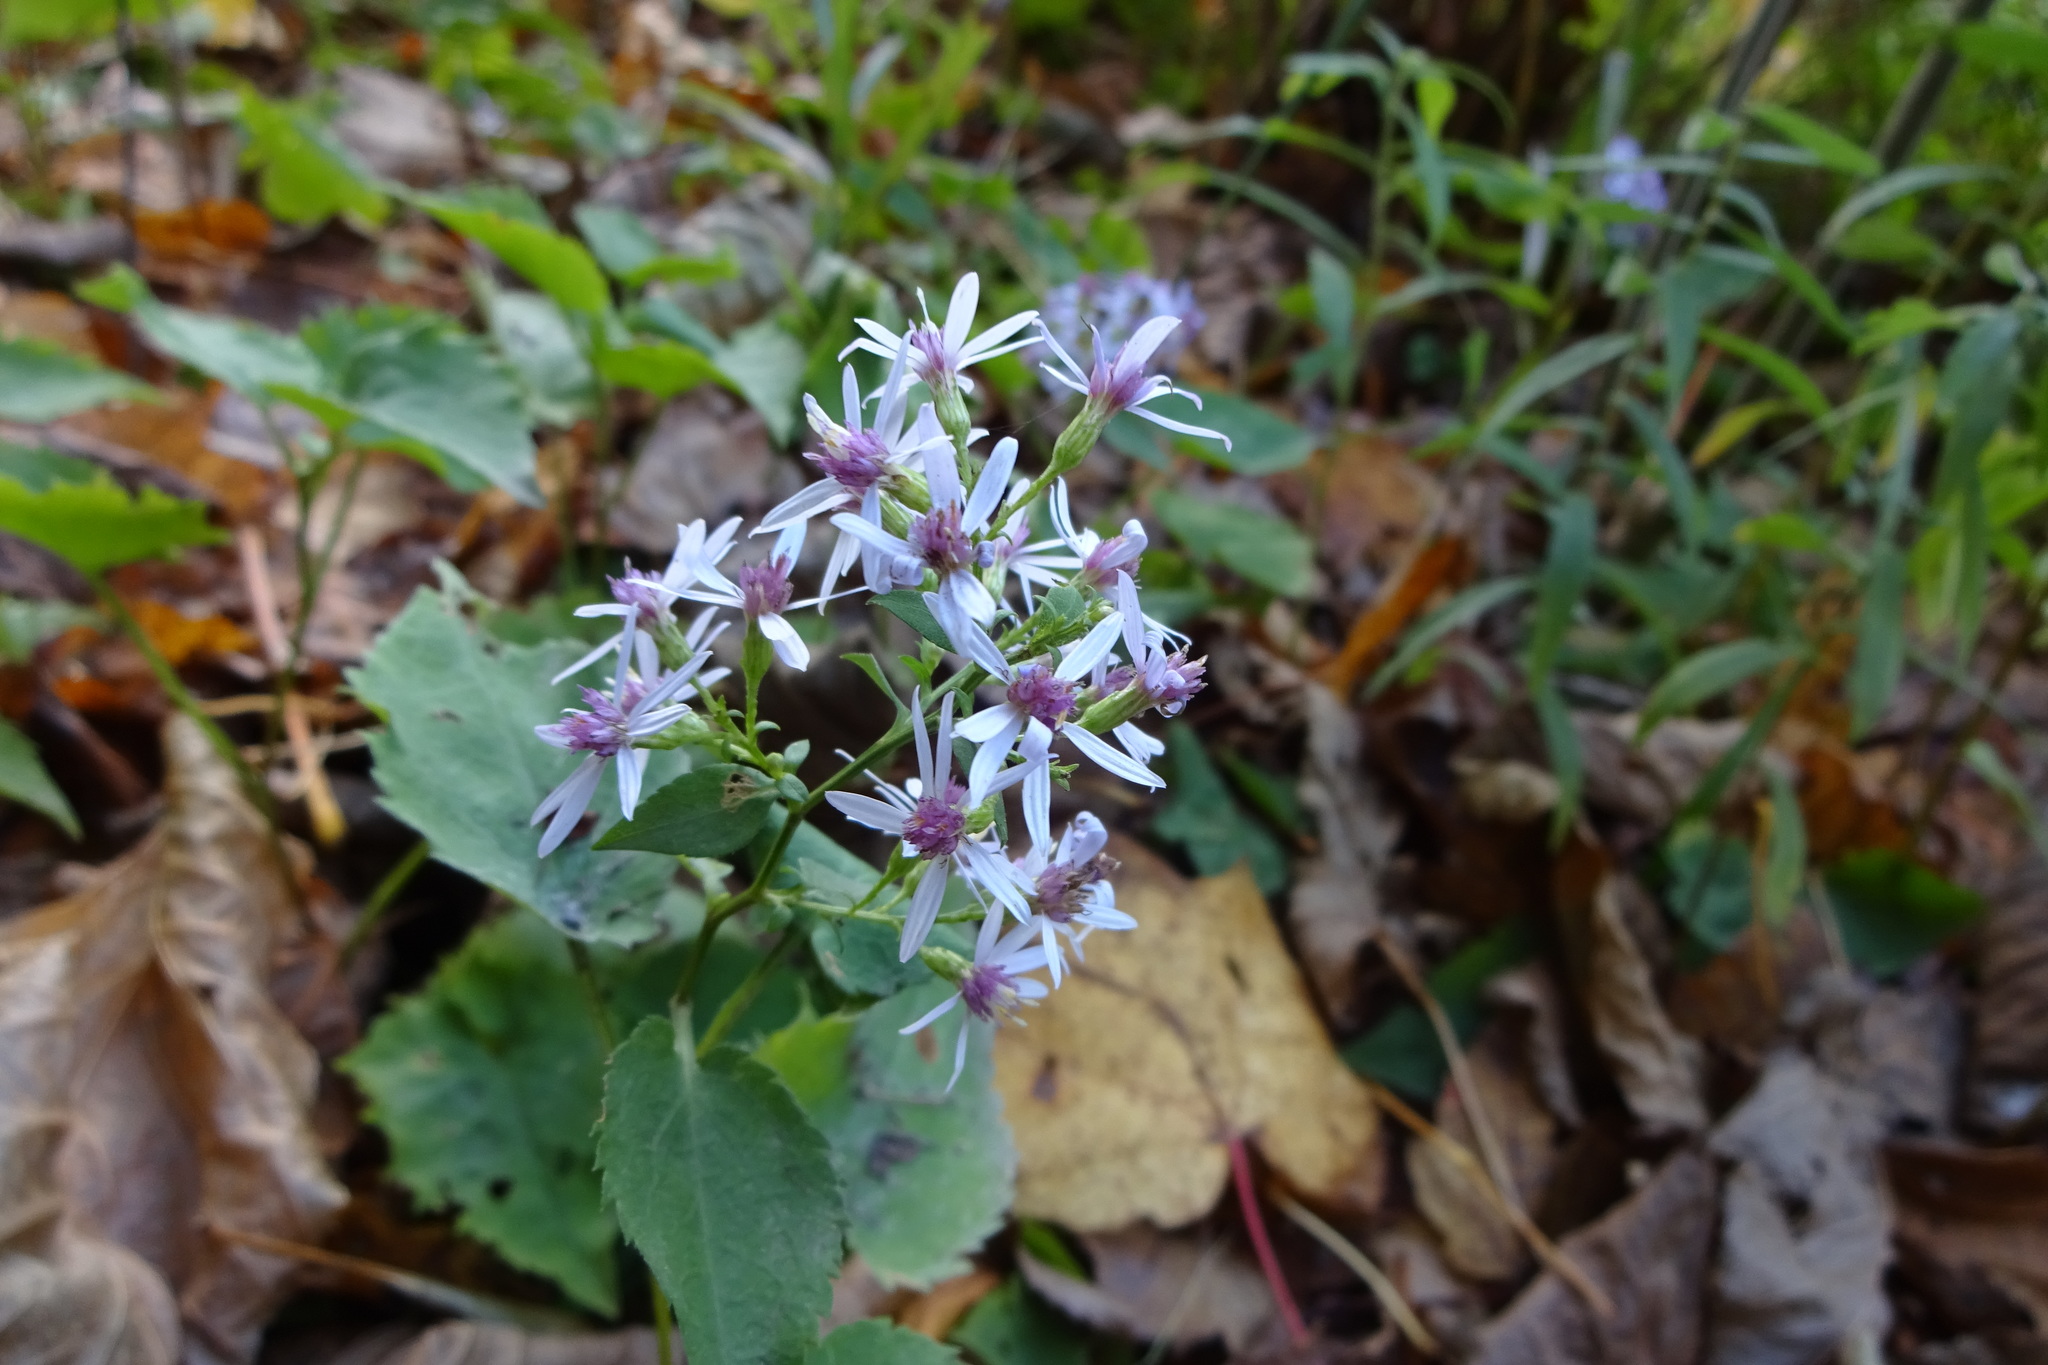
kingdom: Plantae
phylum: Tracheophyta
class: Magnoliopsida
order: Asterales
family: Asteraceae
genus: Symphyotrichum
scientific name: Symphyotrichum cordifolium
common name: Beeweed
